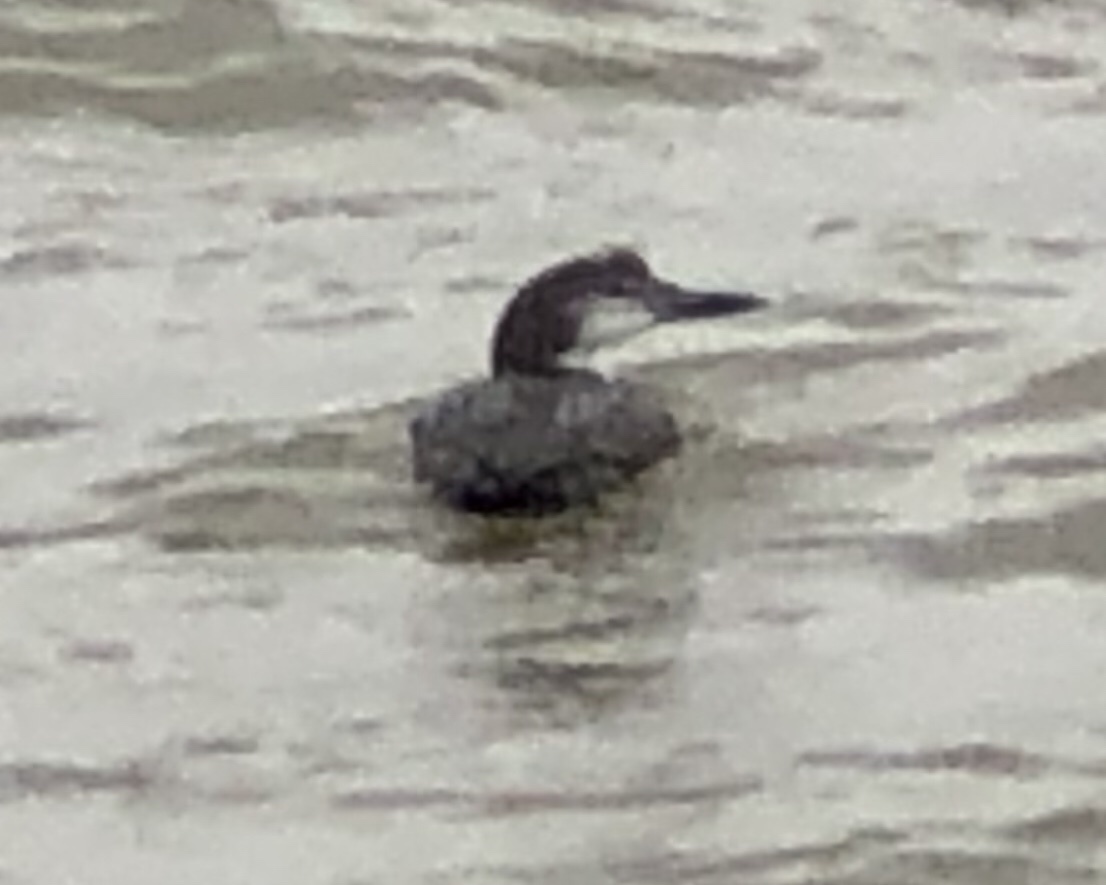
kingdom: Animalia
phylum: Chordata
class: Aves
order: Gaviiformes
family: Gaviidae
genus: Gavia
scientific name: Gavia immer
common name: Common loon
